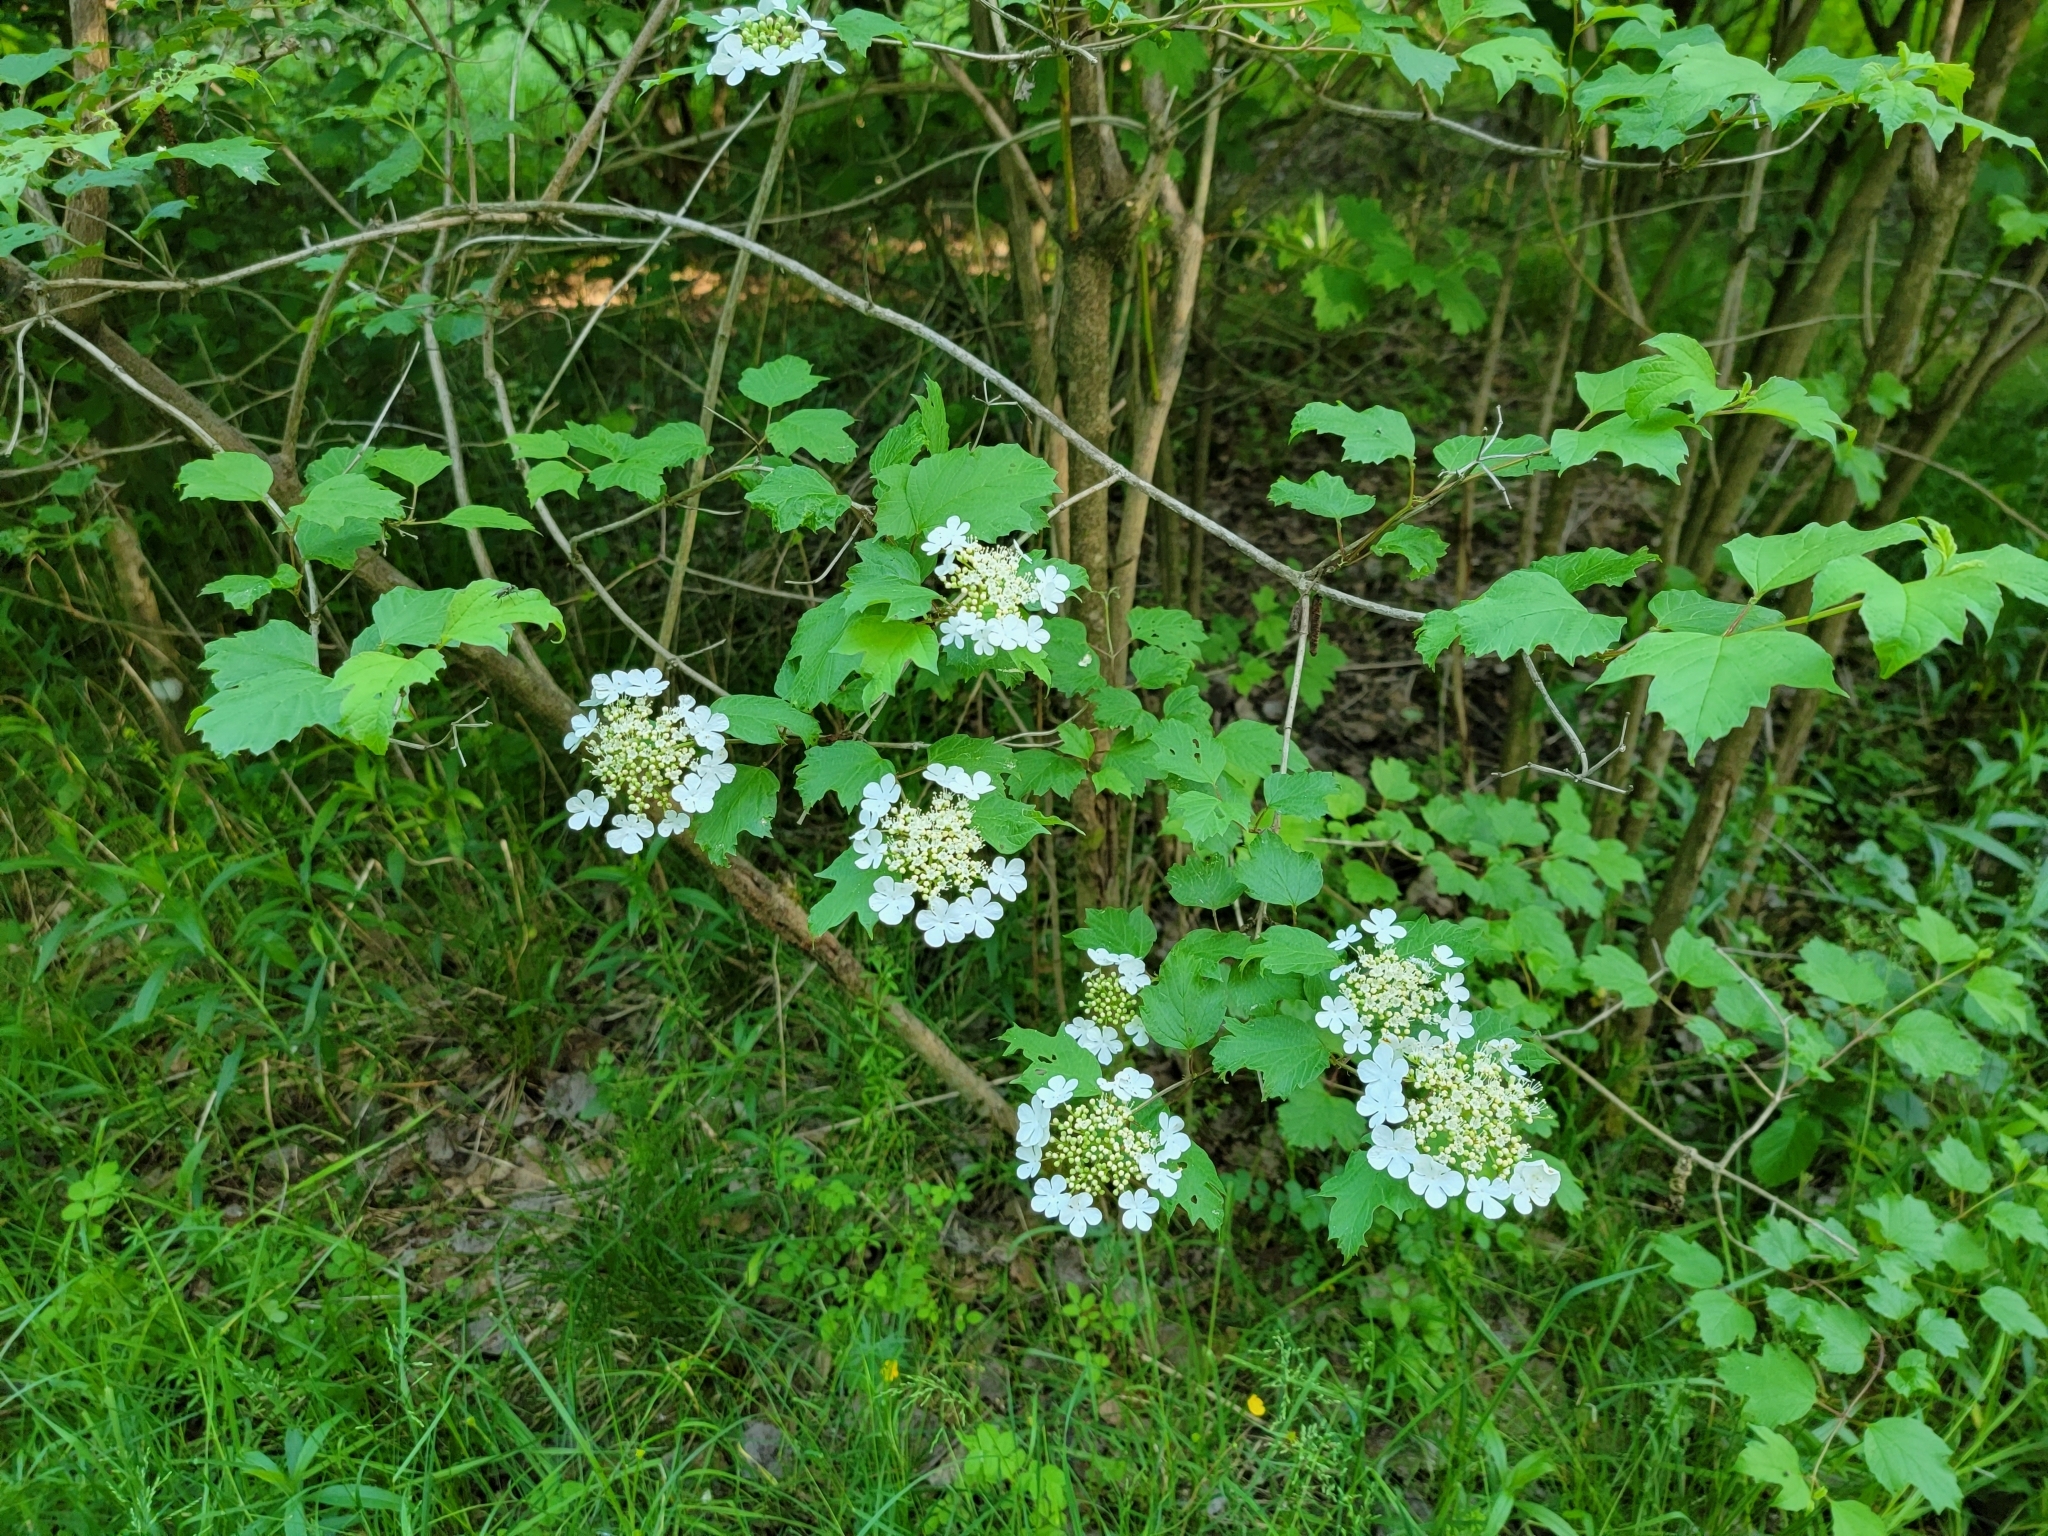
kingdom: Plantae
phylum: Tracheophyta
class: Magnoliopsida
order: Dipsacales
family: Viburnaceae
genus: Viburnum
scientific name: Viburnum opulus
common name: Guelder-rose
